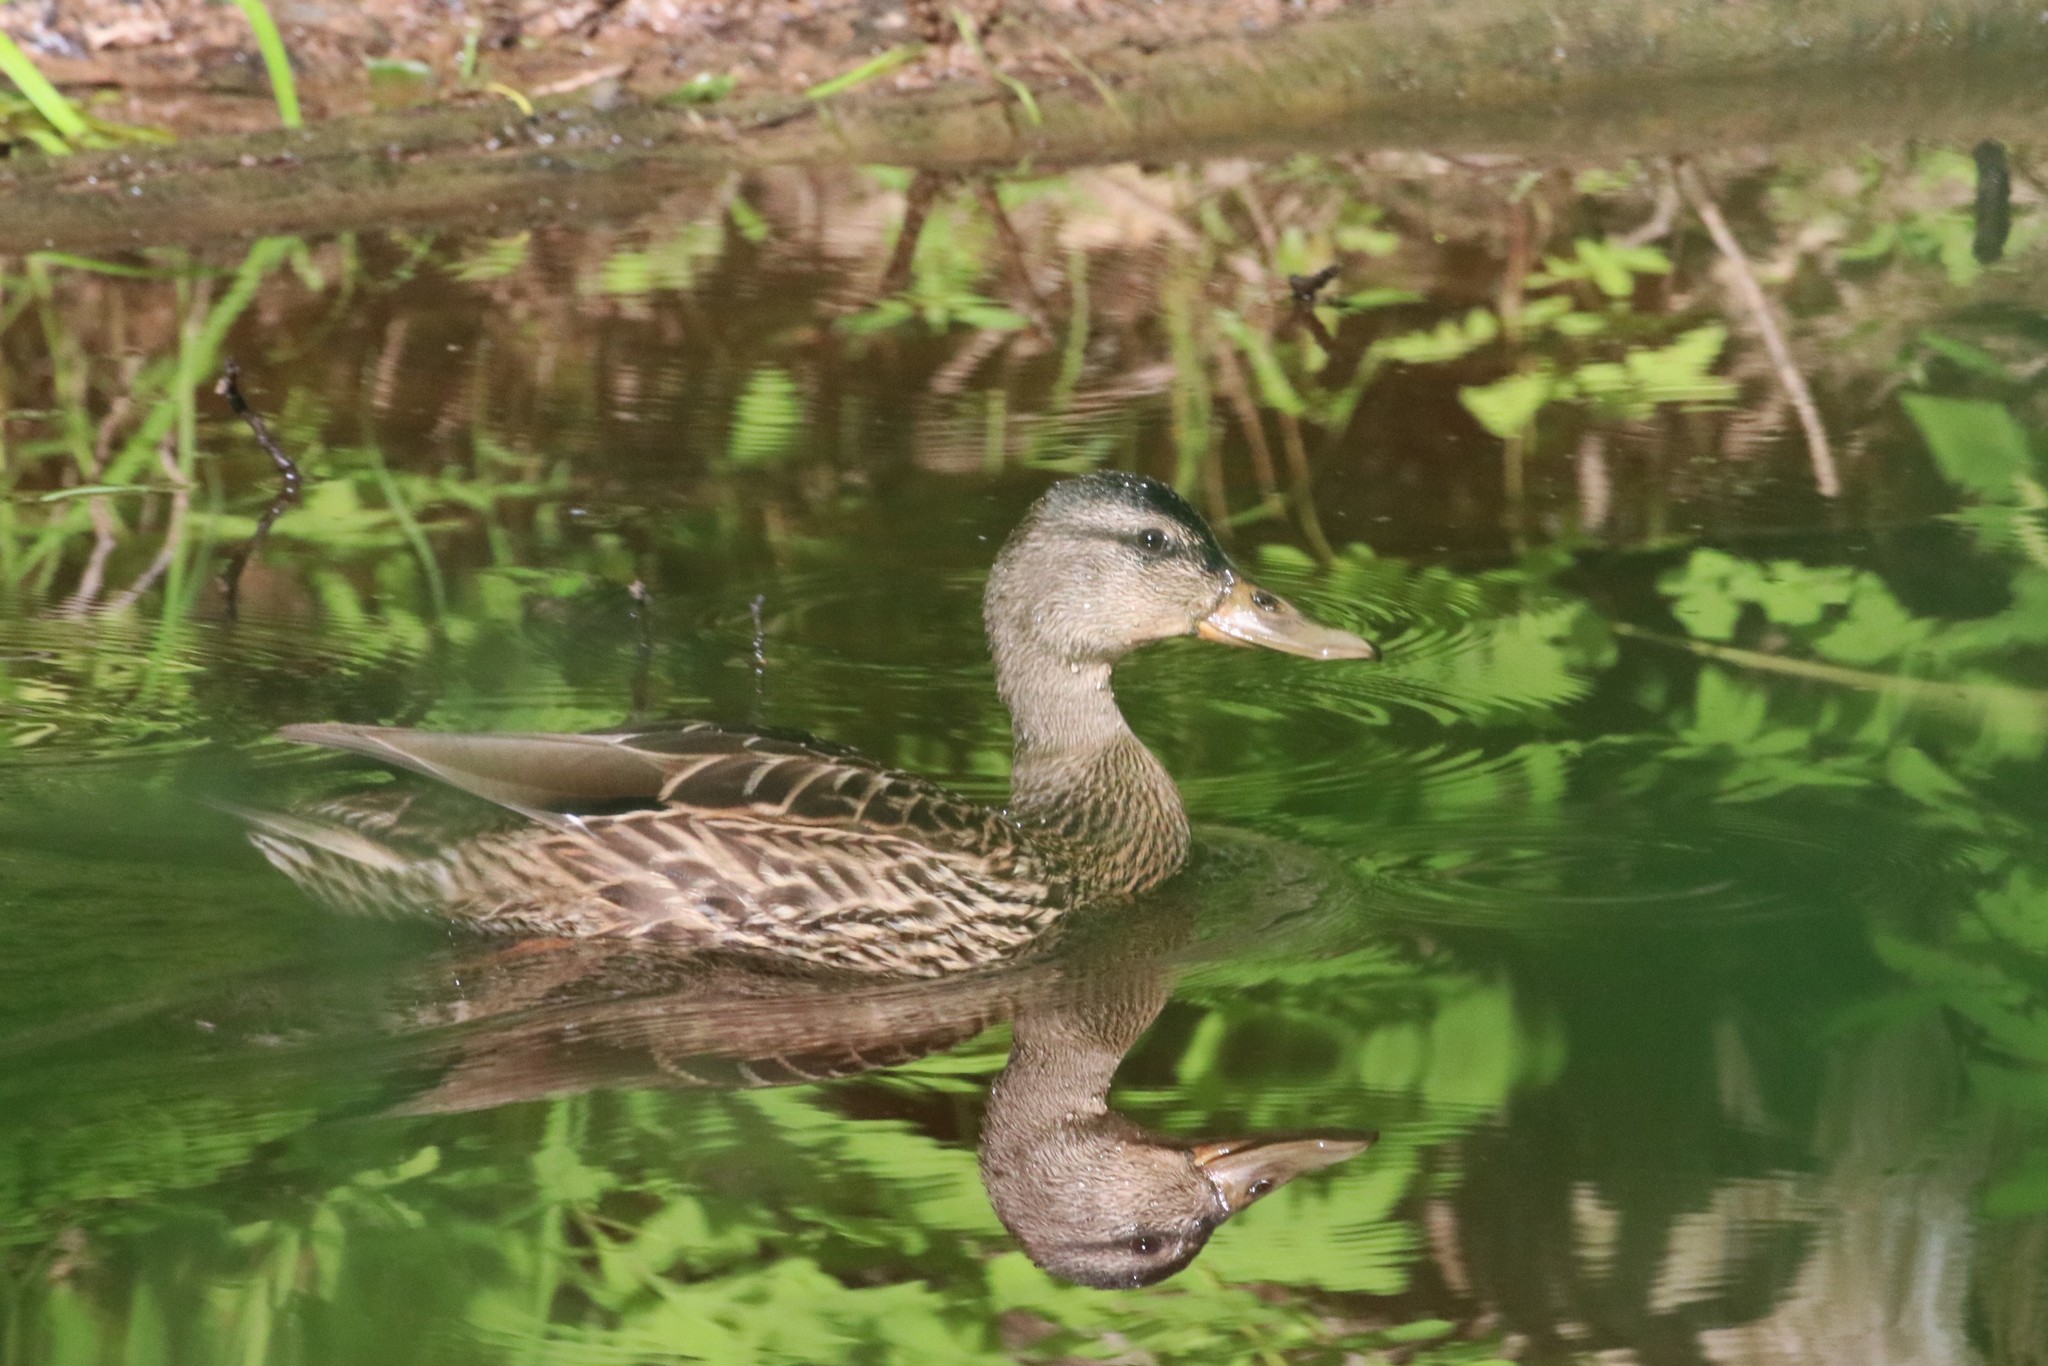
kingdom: Animalia
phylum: Chordata
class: Aves
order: Anseriformes
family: Anatidae
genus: Anas
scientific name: Anas platyrhynchos
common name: Mallard
